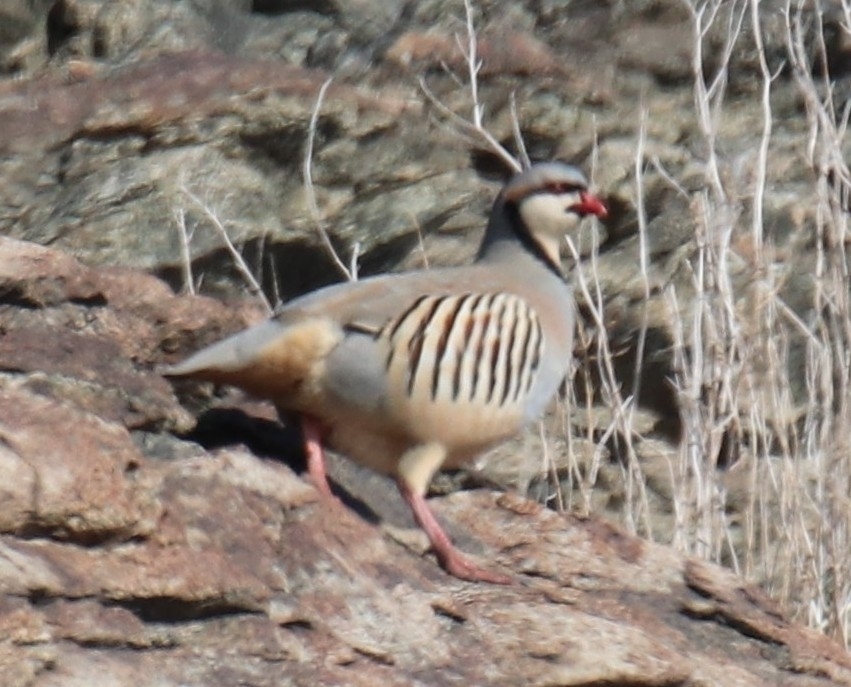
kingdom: Animalia
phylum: Chordata
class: Aves
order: Galliformes
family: Phasianidae
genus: Alectoris
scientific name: Alectoris chukar
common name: Chukar
